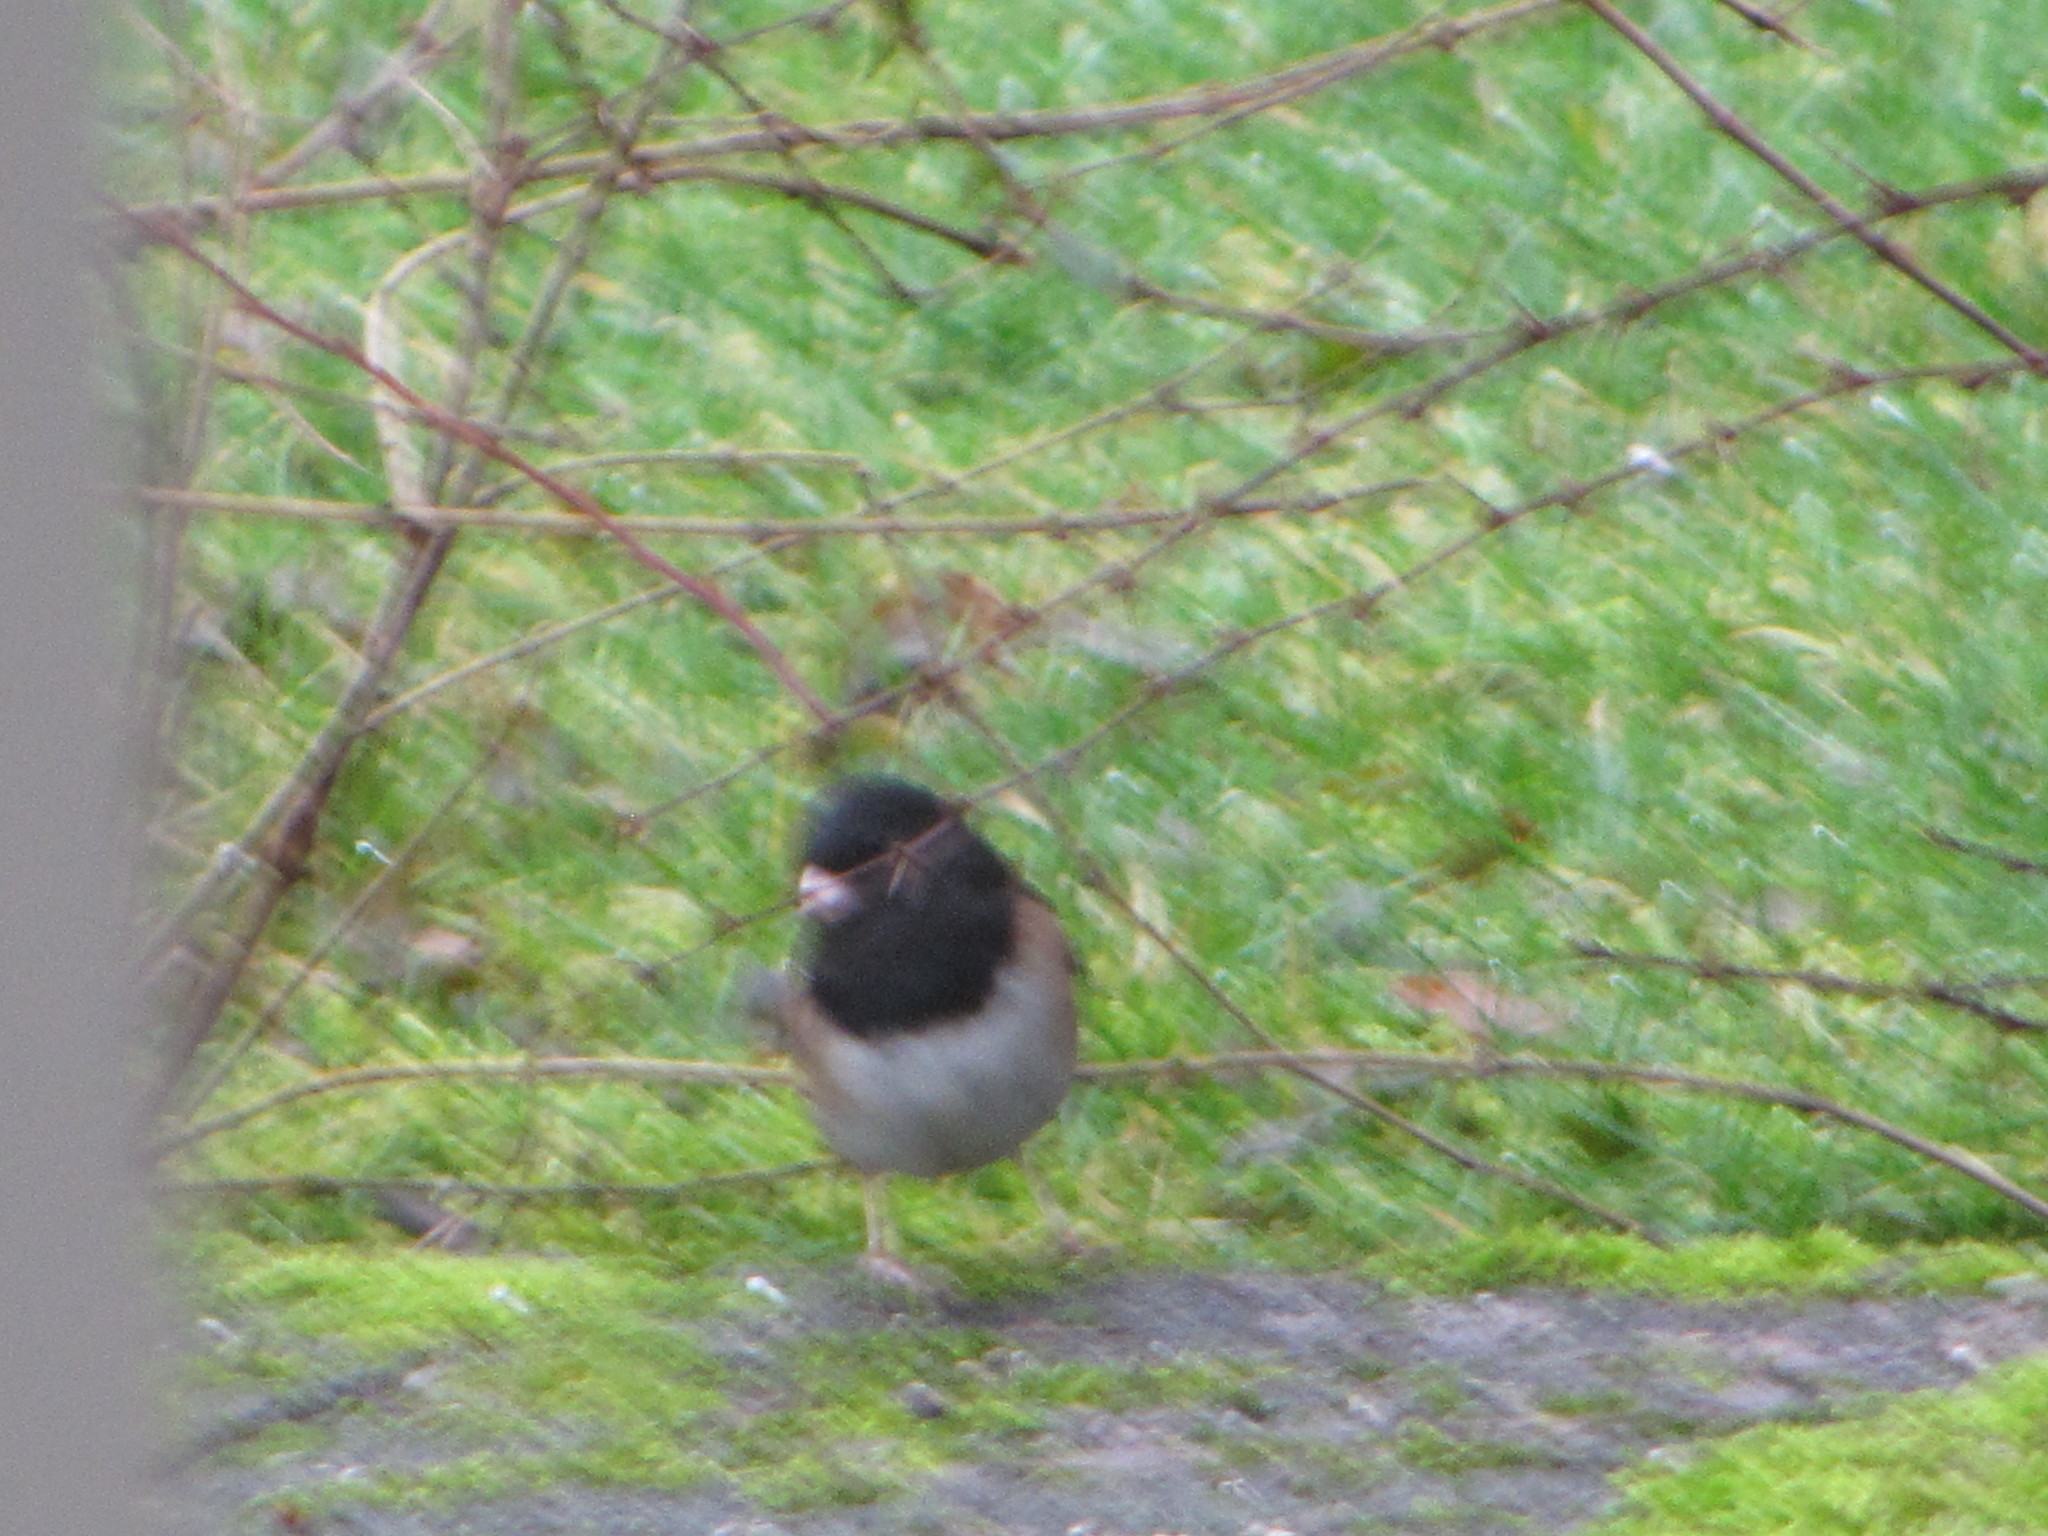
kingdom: Animalia
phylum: Chordata
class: Aves
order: Passeriformes
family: Passerellidae
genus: Junco
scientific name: Junco hyemalis
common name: Dark-eyed junco
